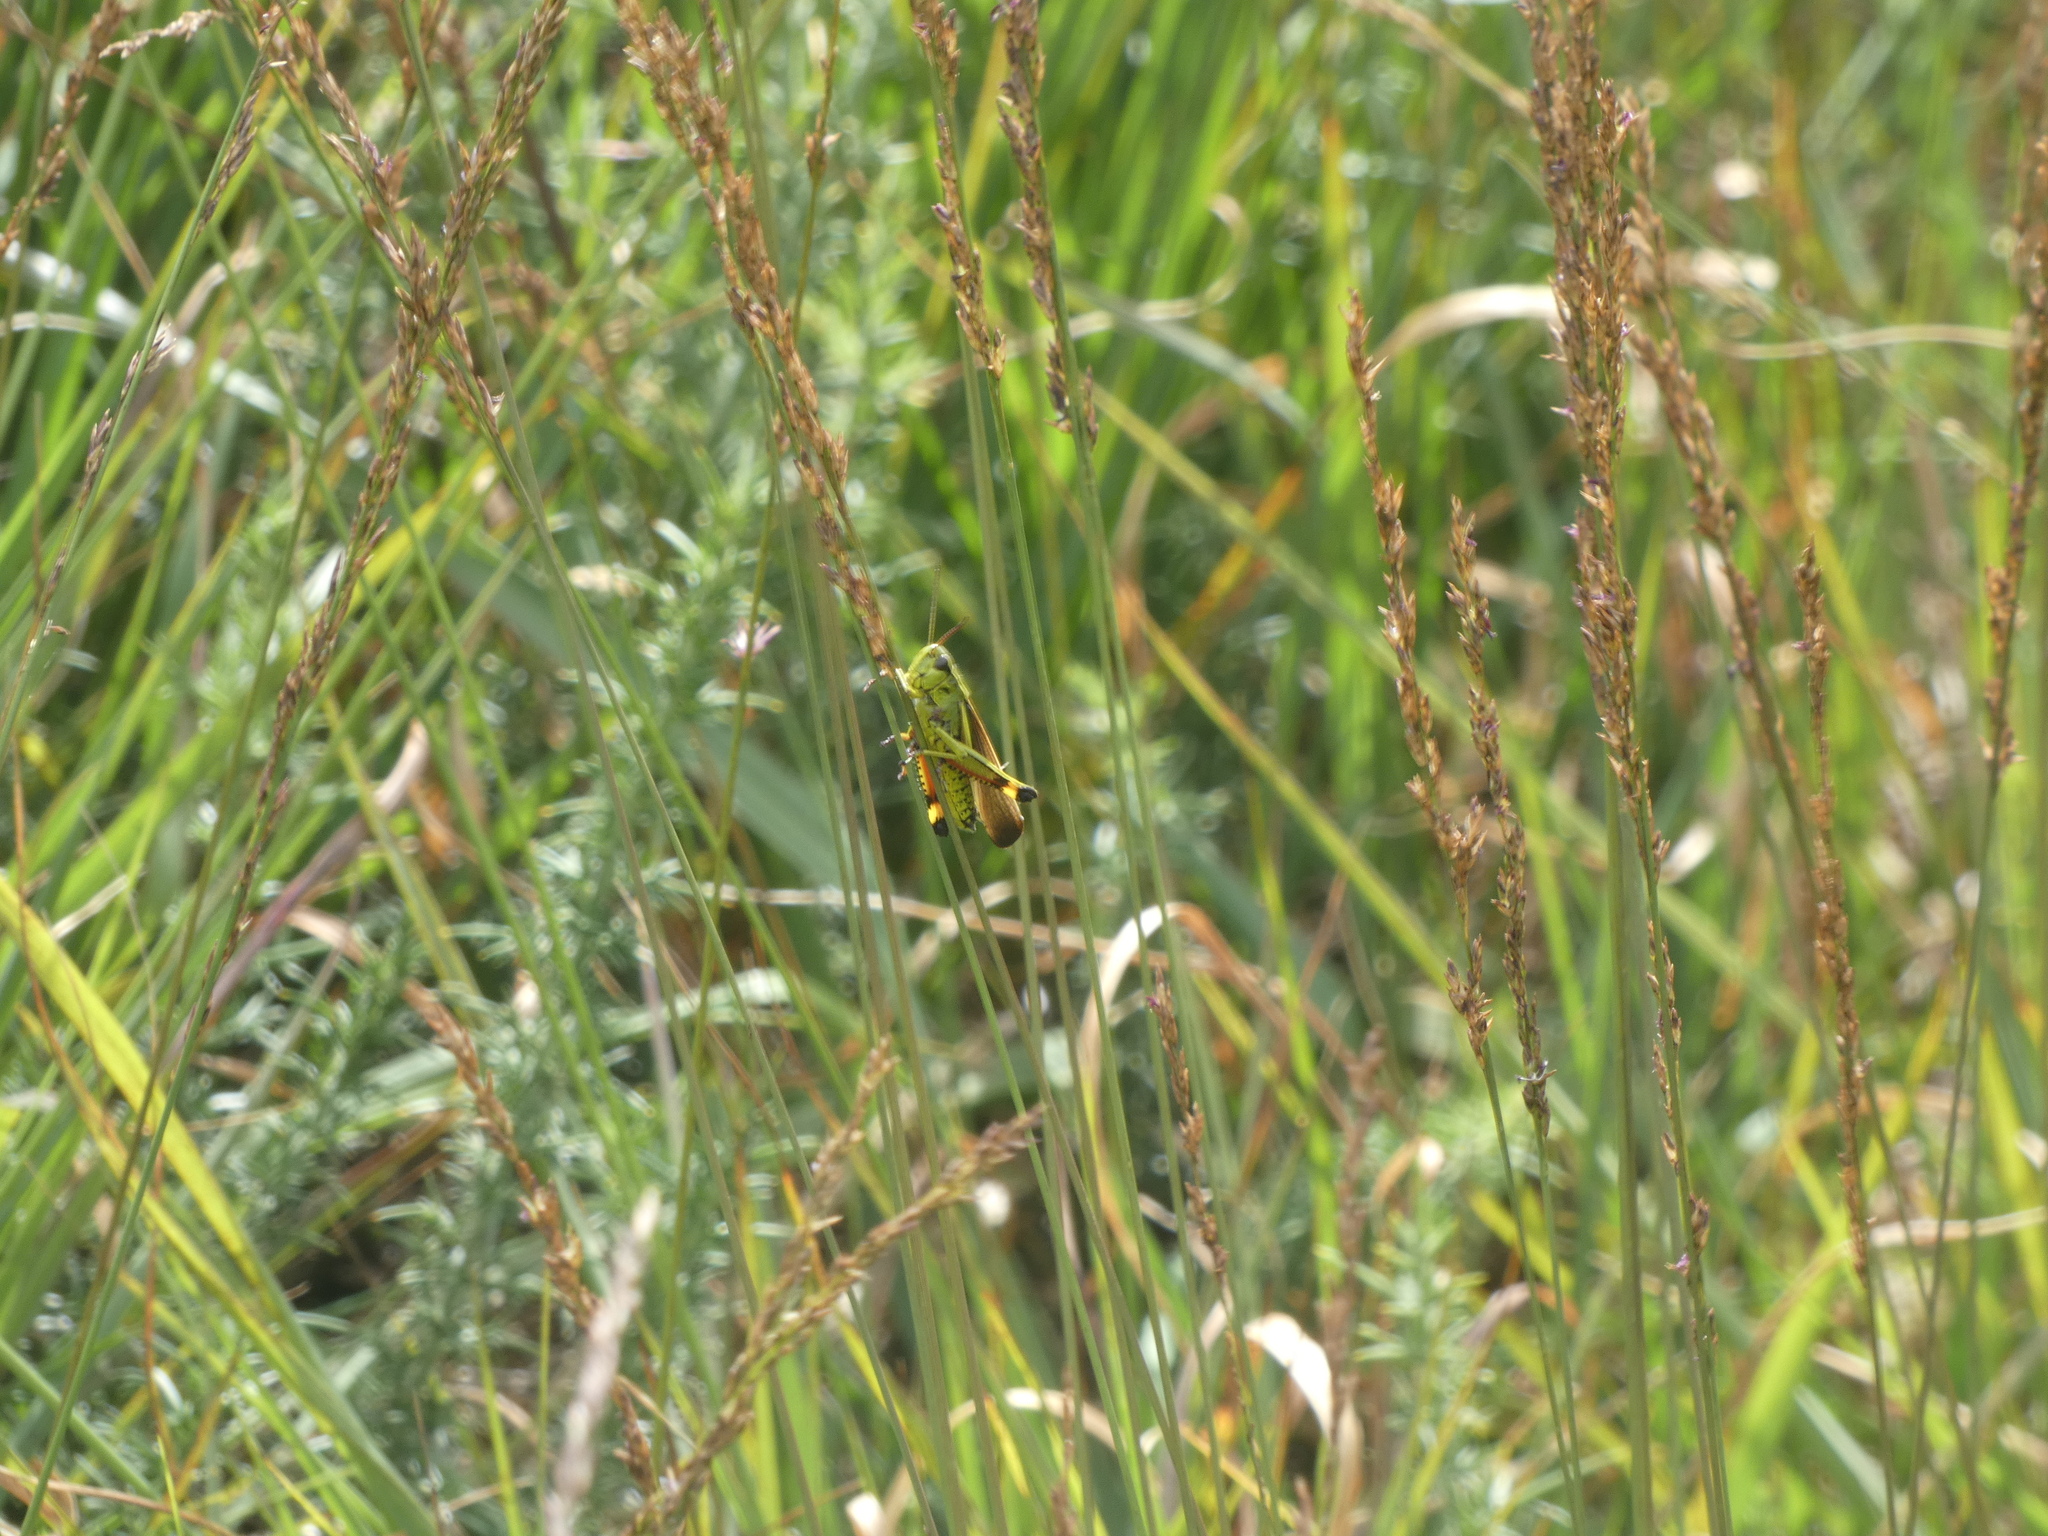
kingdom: Animalia
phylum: Arthropoda
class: Insecta
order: Orthoptera
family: Acrididae
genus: Stethophyma
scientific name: Stethophyma grossum
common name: Large marsh grasshopper
